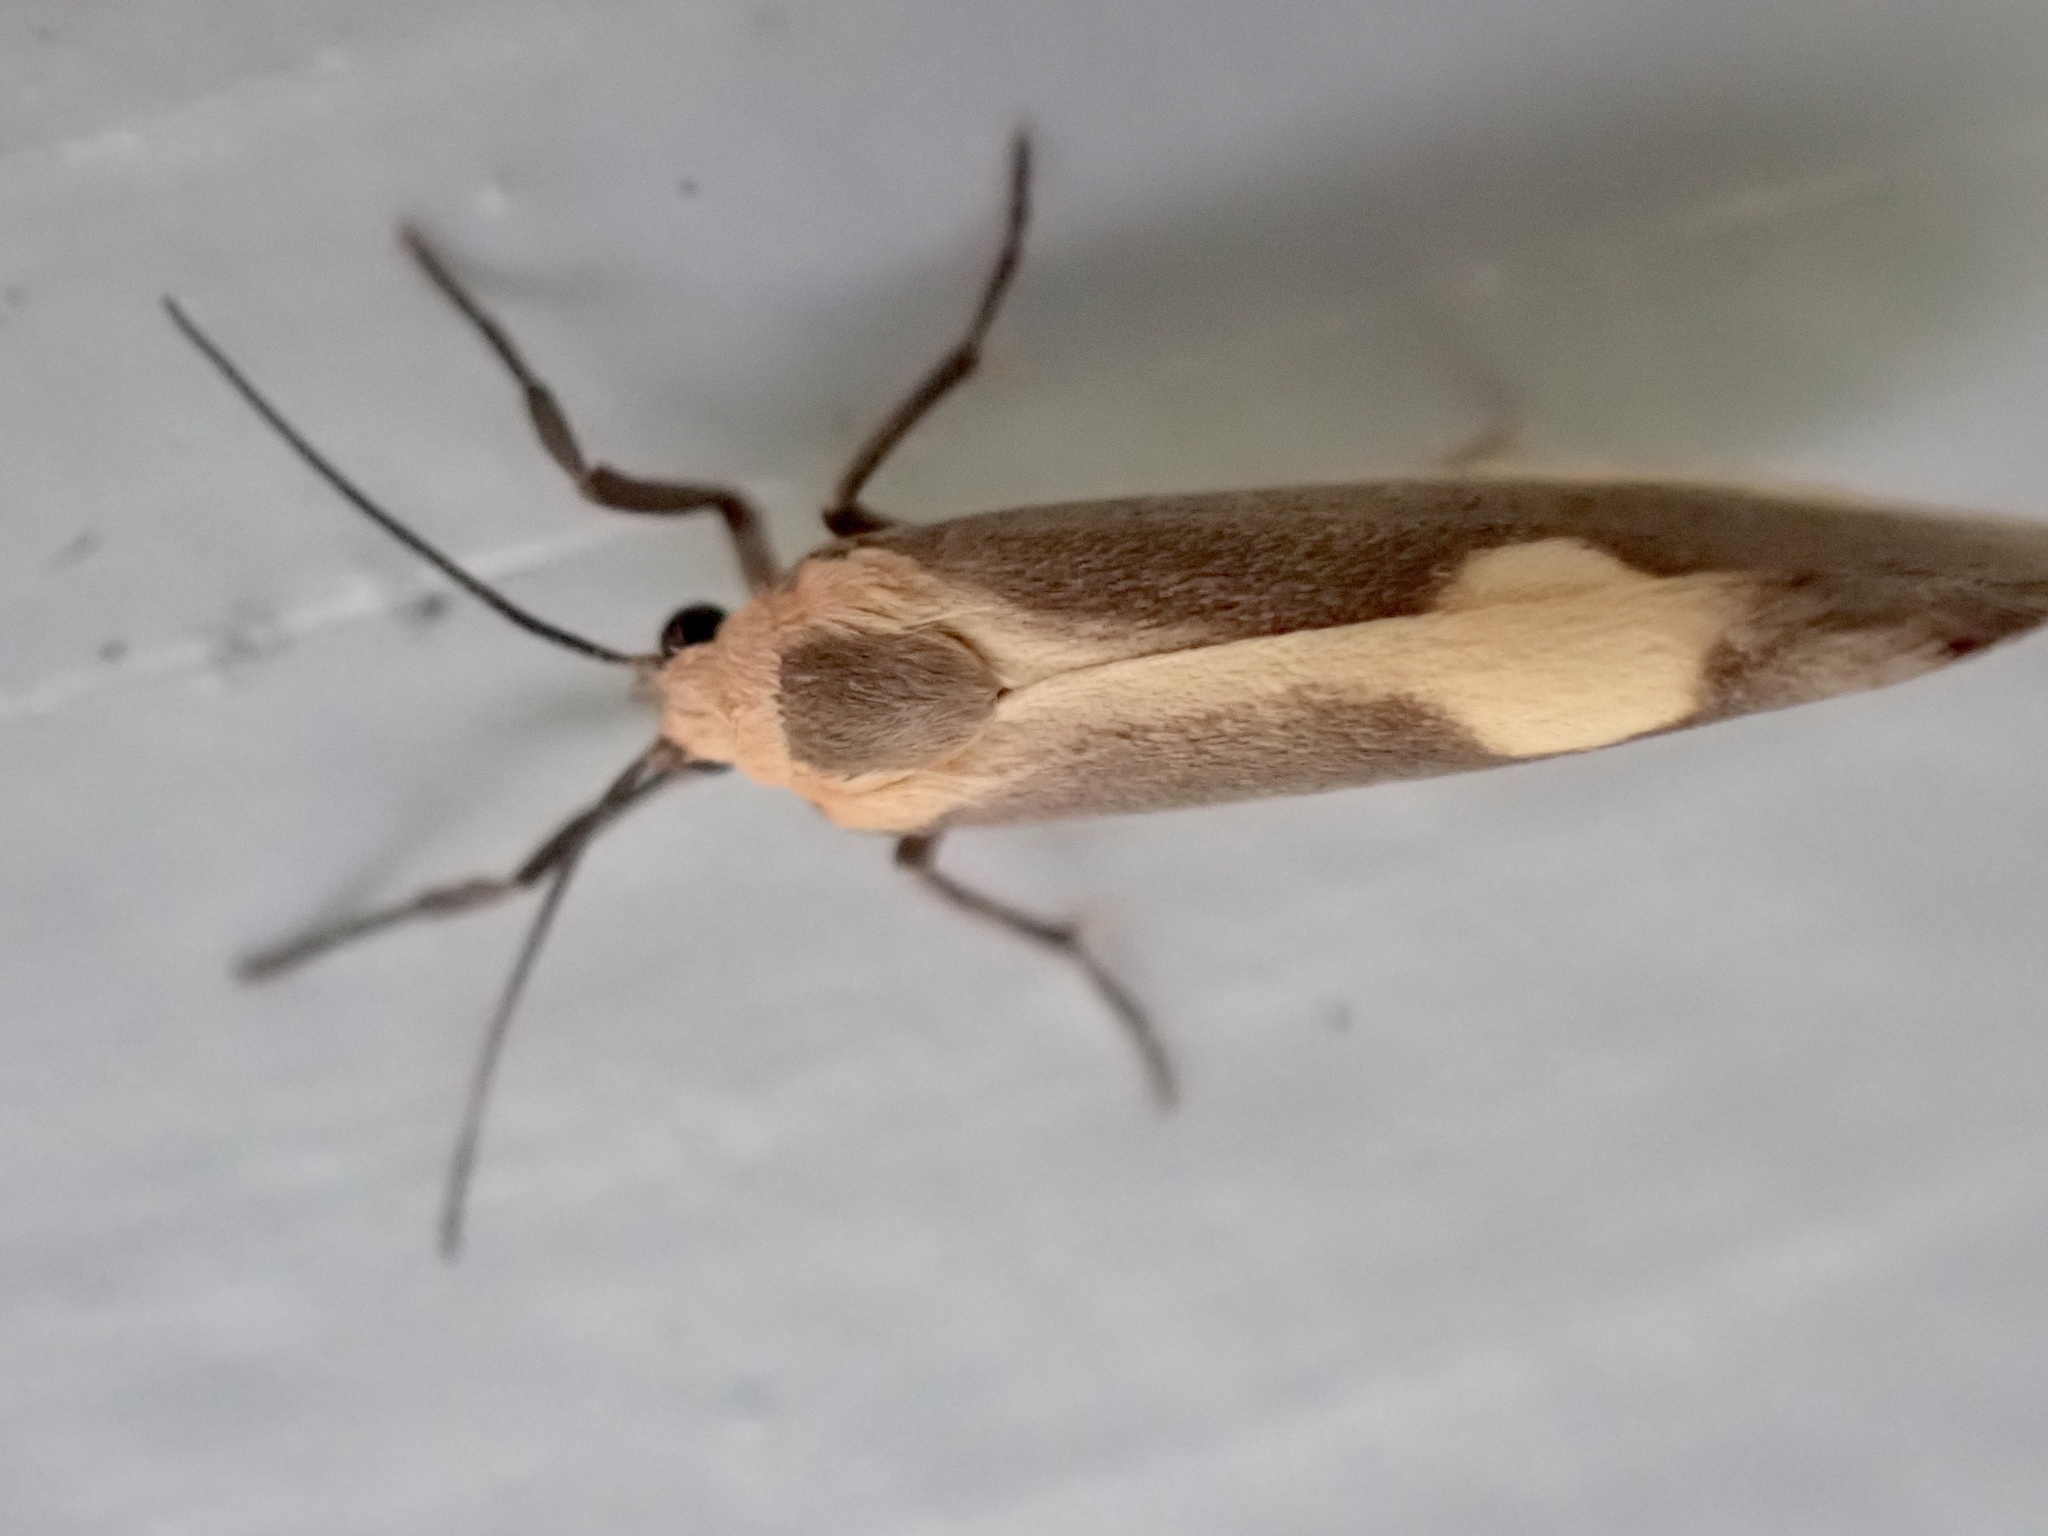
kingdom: Animalia
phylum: Arthropoda
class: Insecta
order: Lepidoptera
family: Erebidae
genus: Cisthene
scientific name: Cisthene plumbea
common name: Lead colored lichen moth
